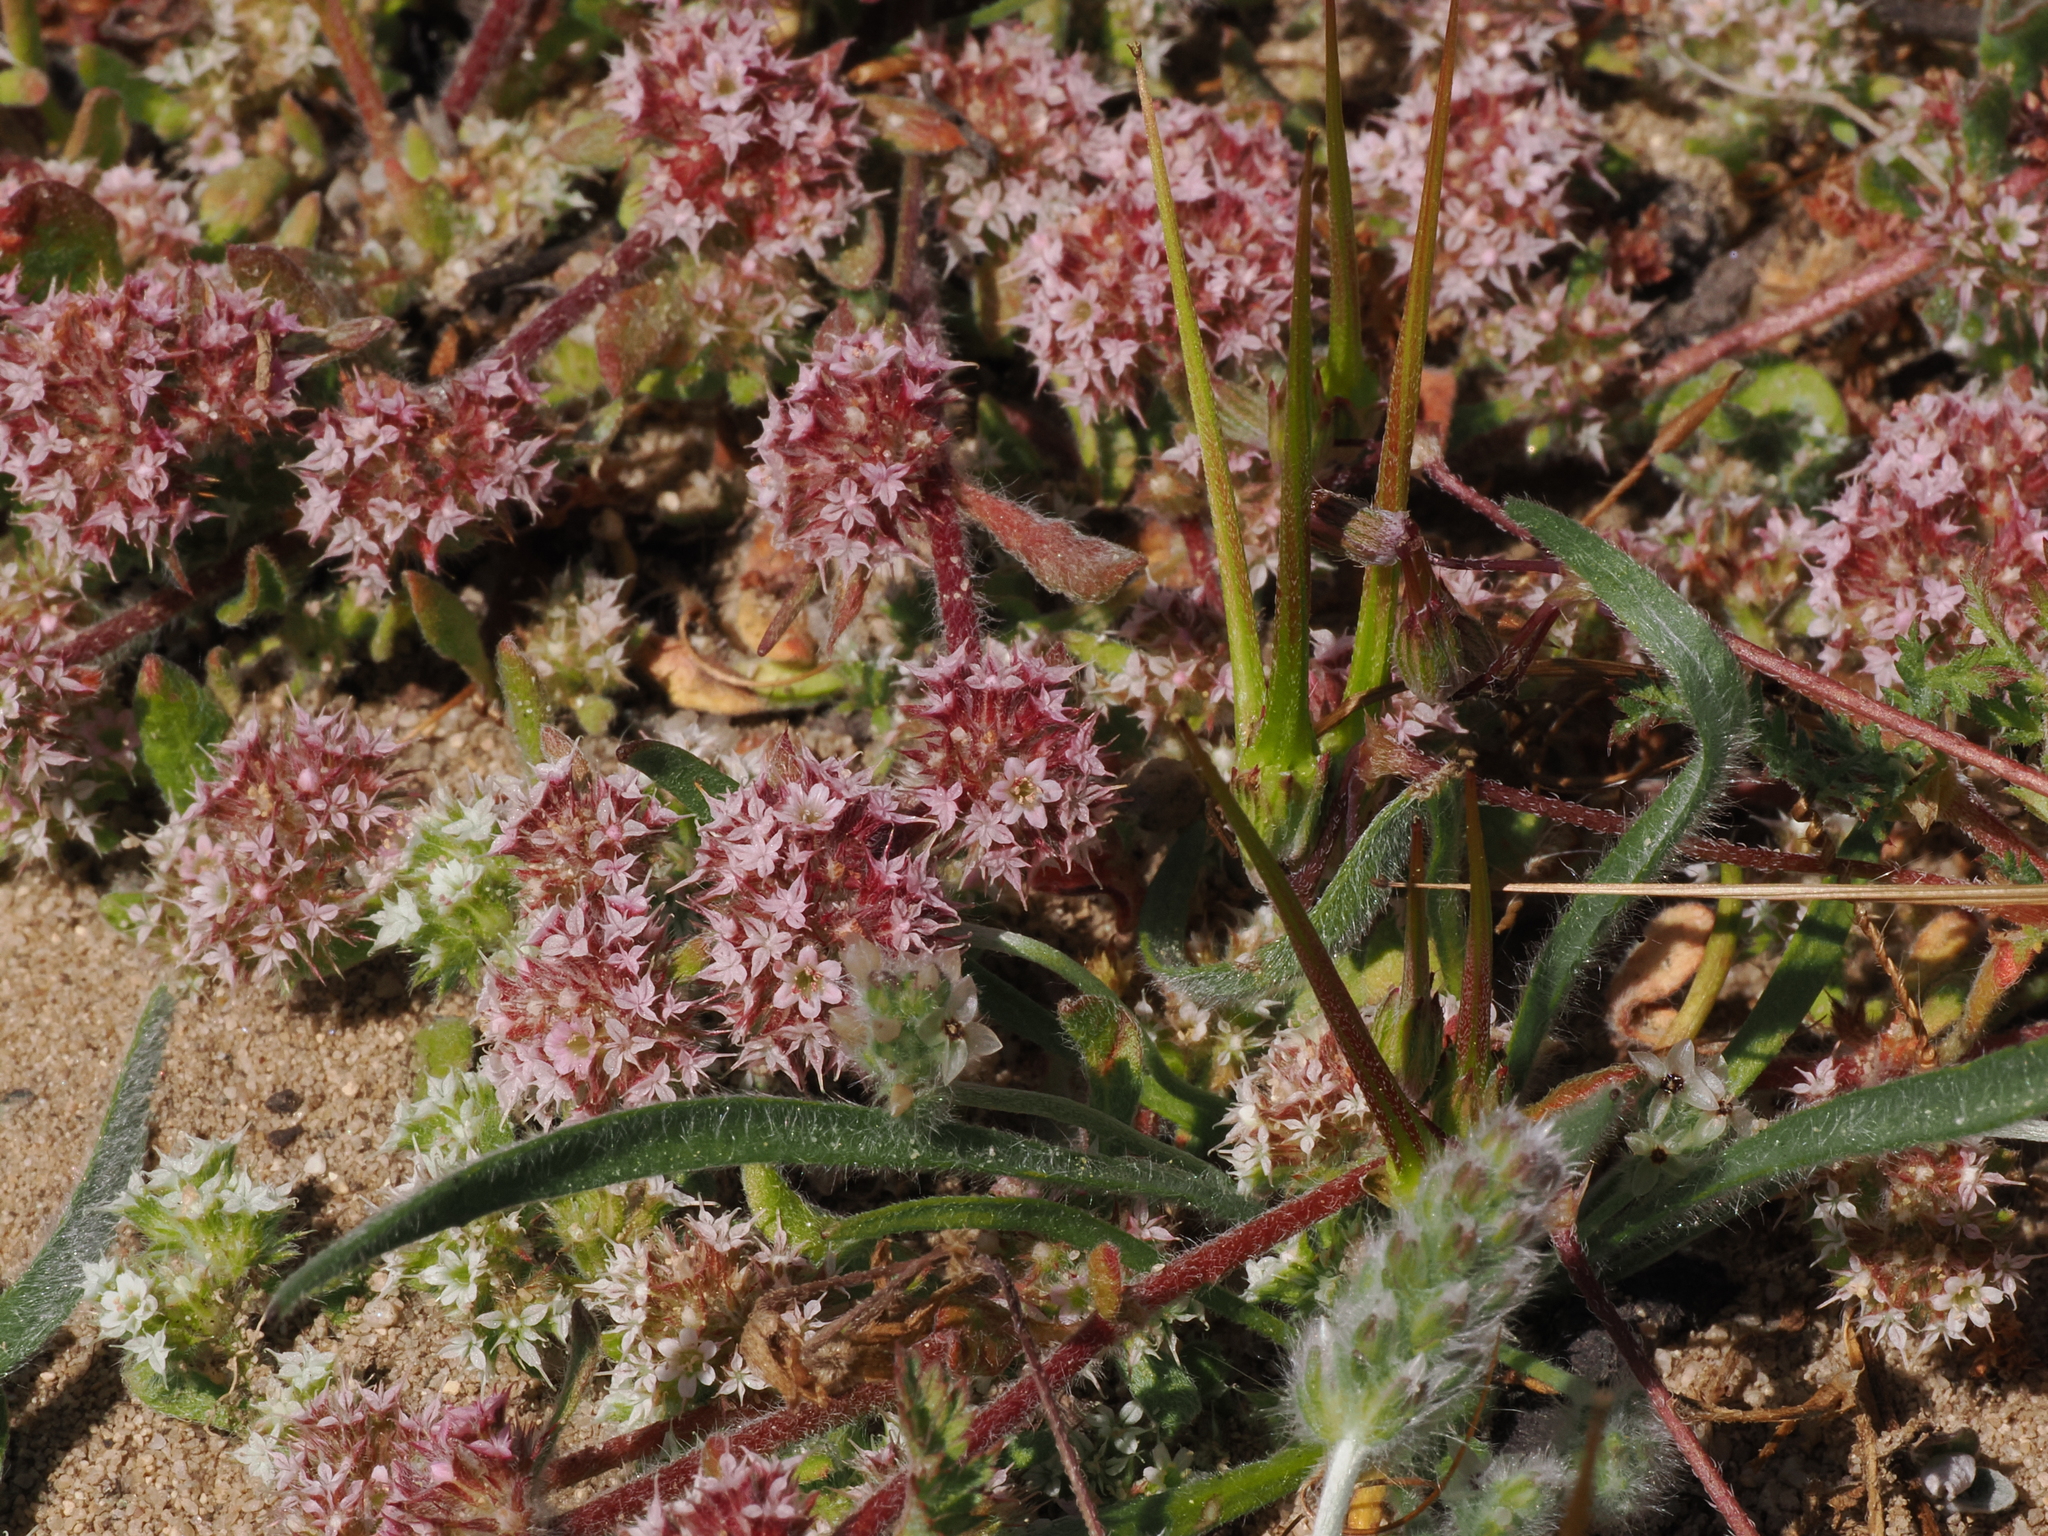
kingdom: Plantae
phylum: Tracheophyta
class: Magnoliopsida
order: Caryophyllales
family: Polygonaceae
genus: Chorizanthe
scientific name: Chorizanthe pungens
